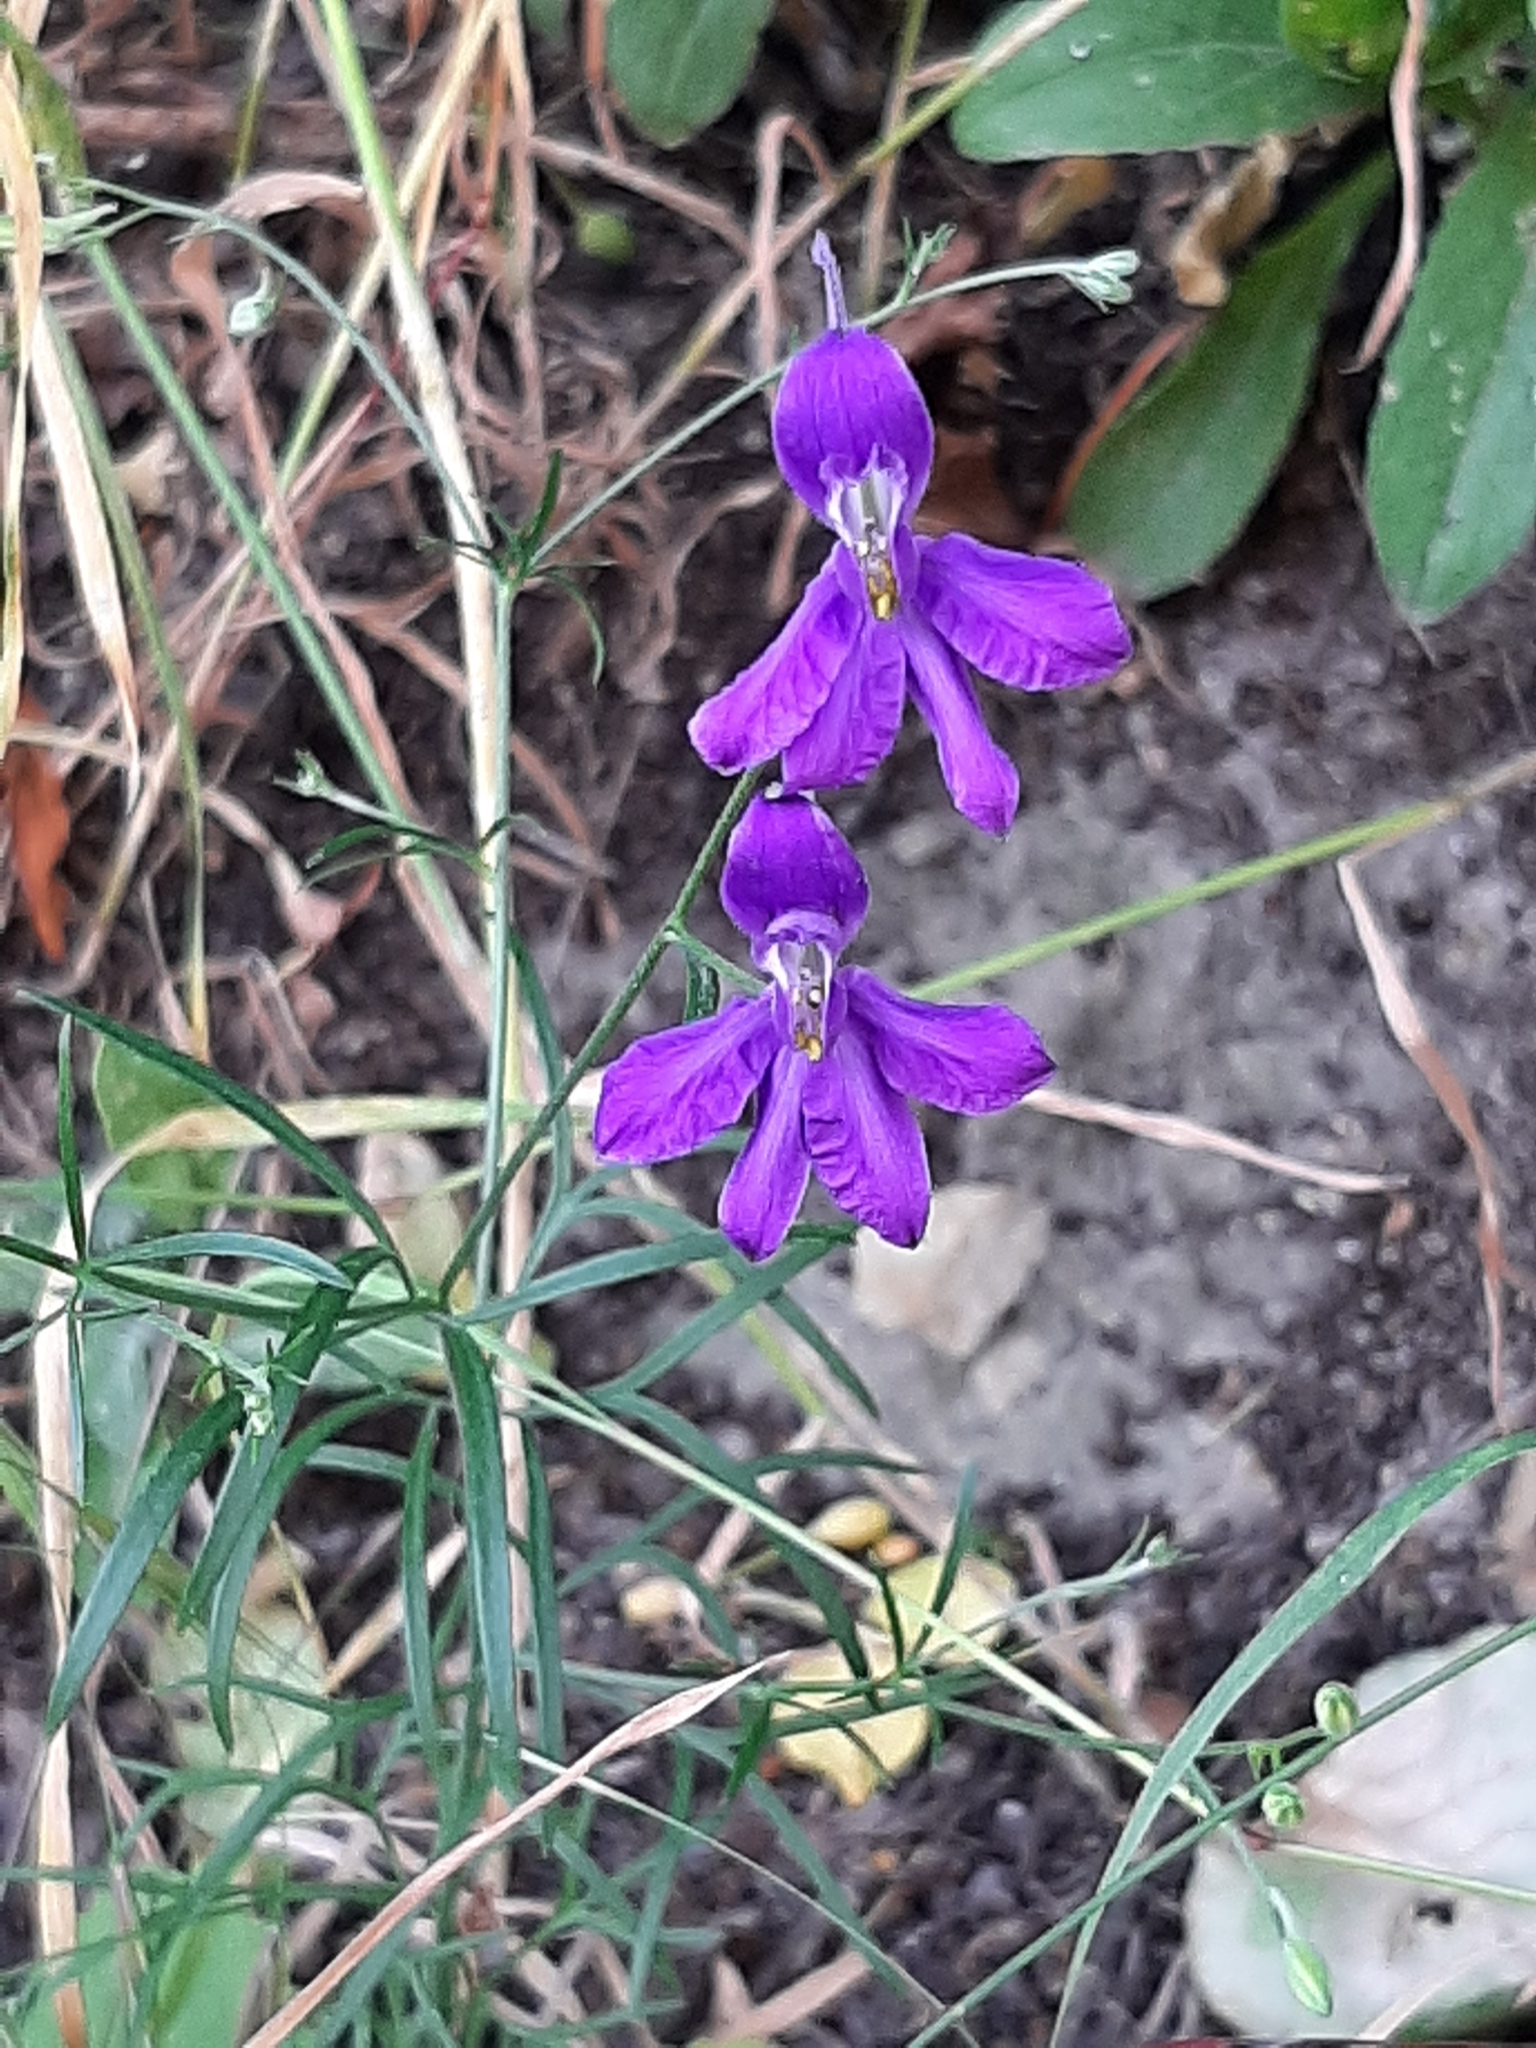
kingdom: Plantae
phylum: Tracheophyta
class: Magnoliopsida
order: Ranunculales
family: Ranunculaceae
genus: Delphinium
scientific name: Delphinium consolida
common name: Branching larkspur
